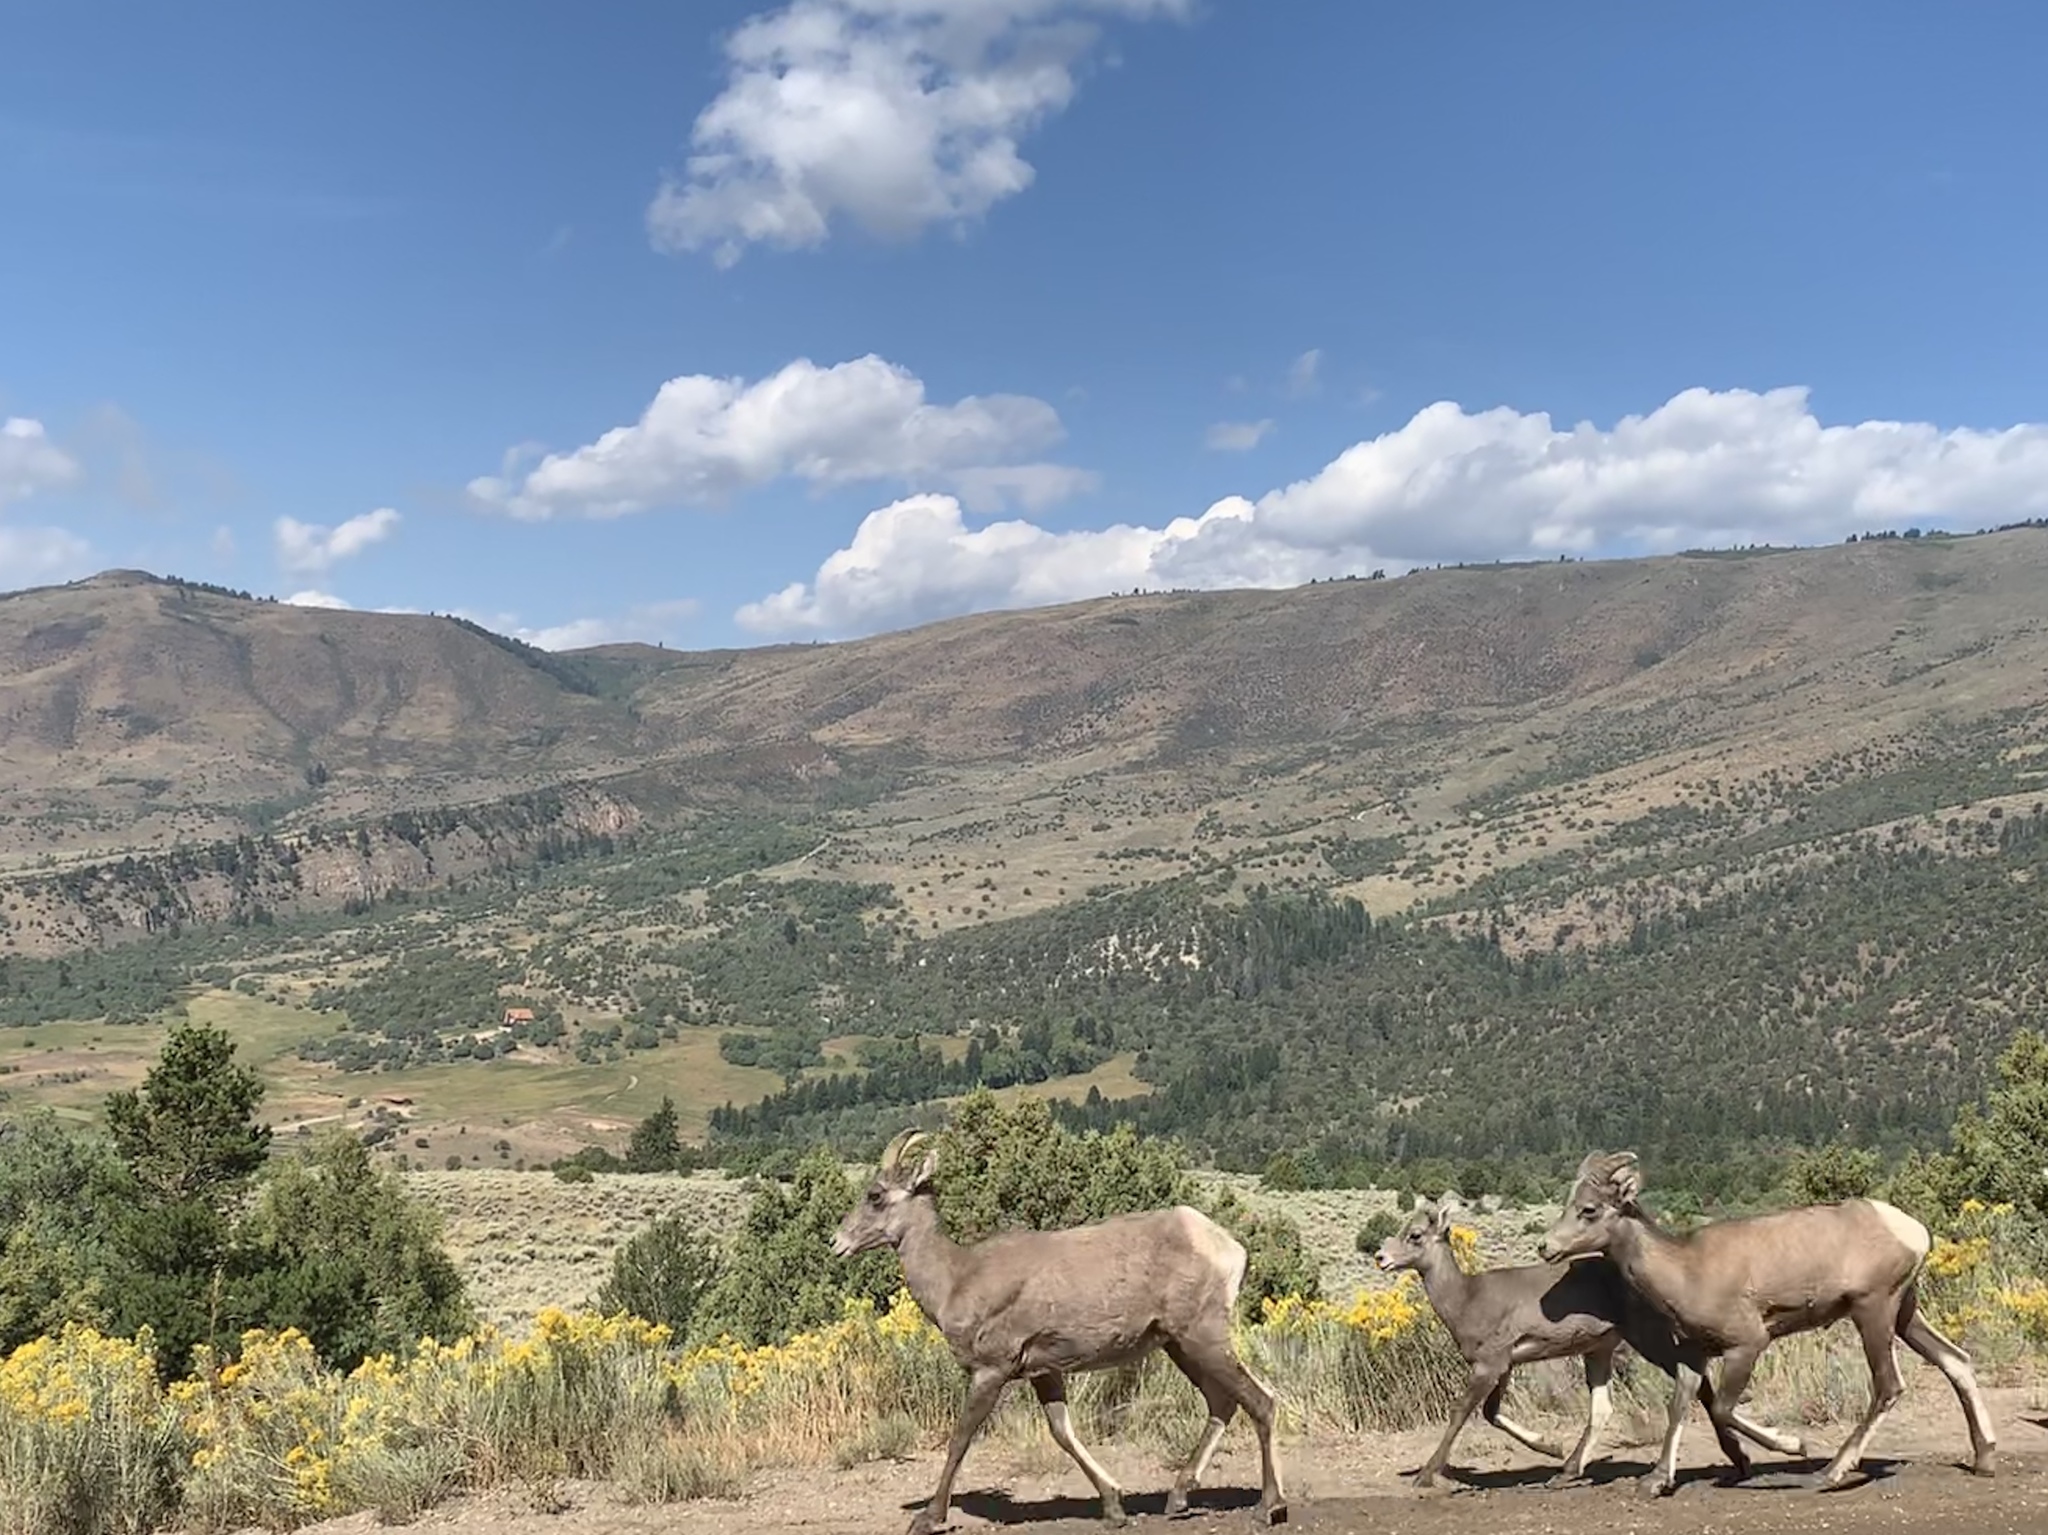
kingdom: Animalia
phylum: Chordata
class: Mammalia
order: Artiodactyla
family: Bovidae
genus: Ovis
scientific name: Ovis canadensis
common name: Bighorn sheep
